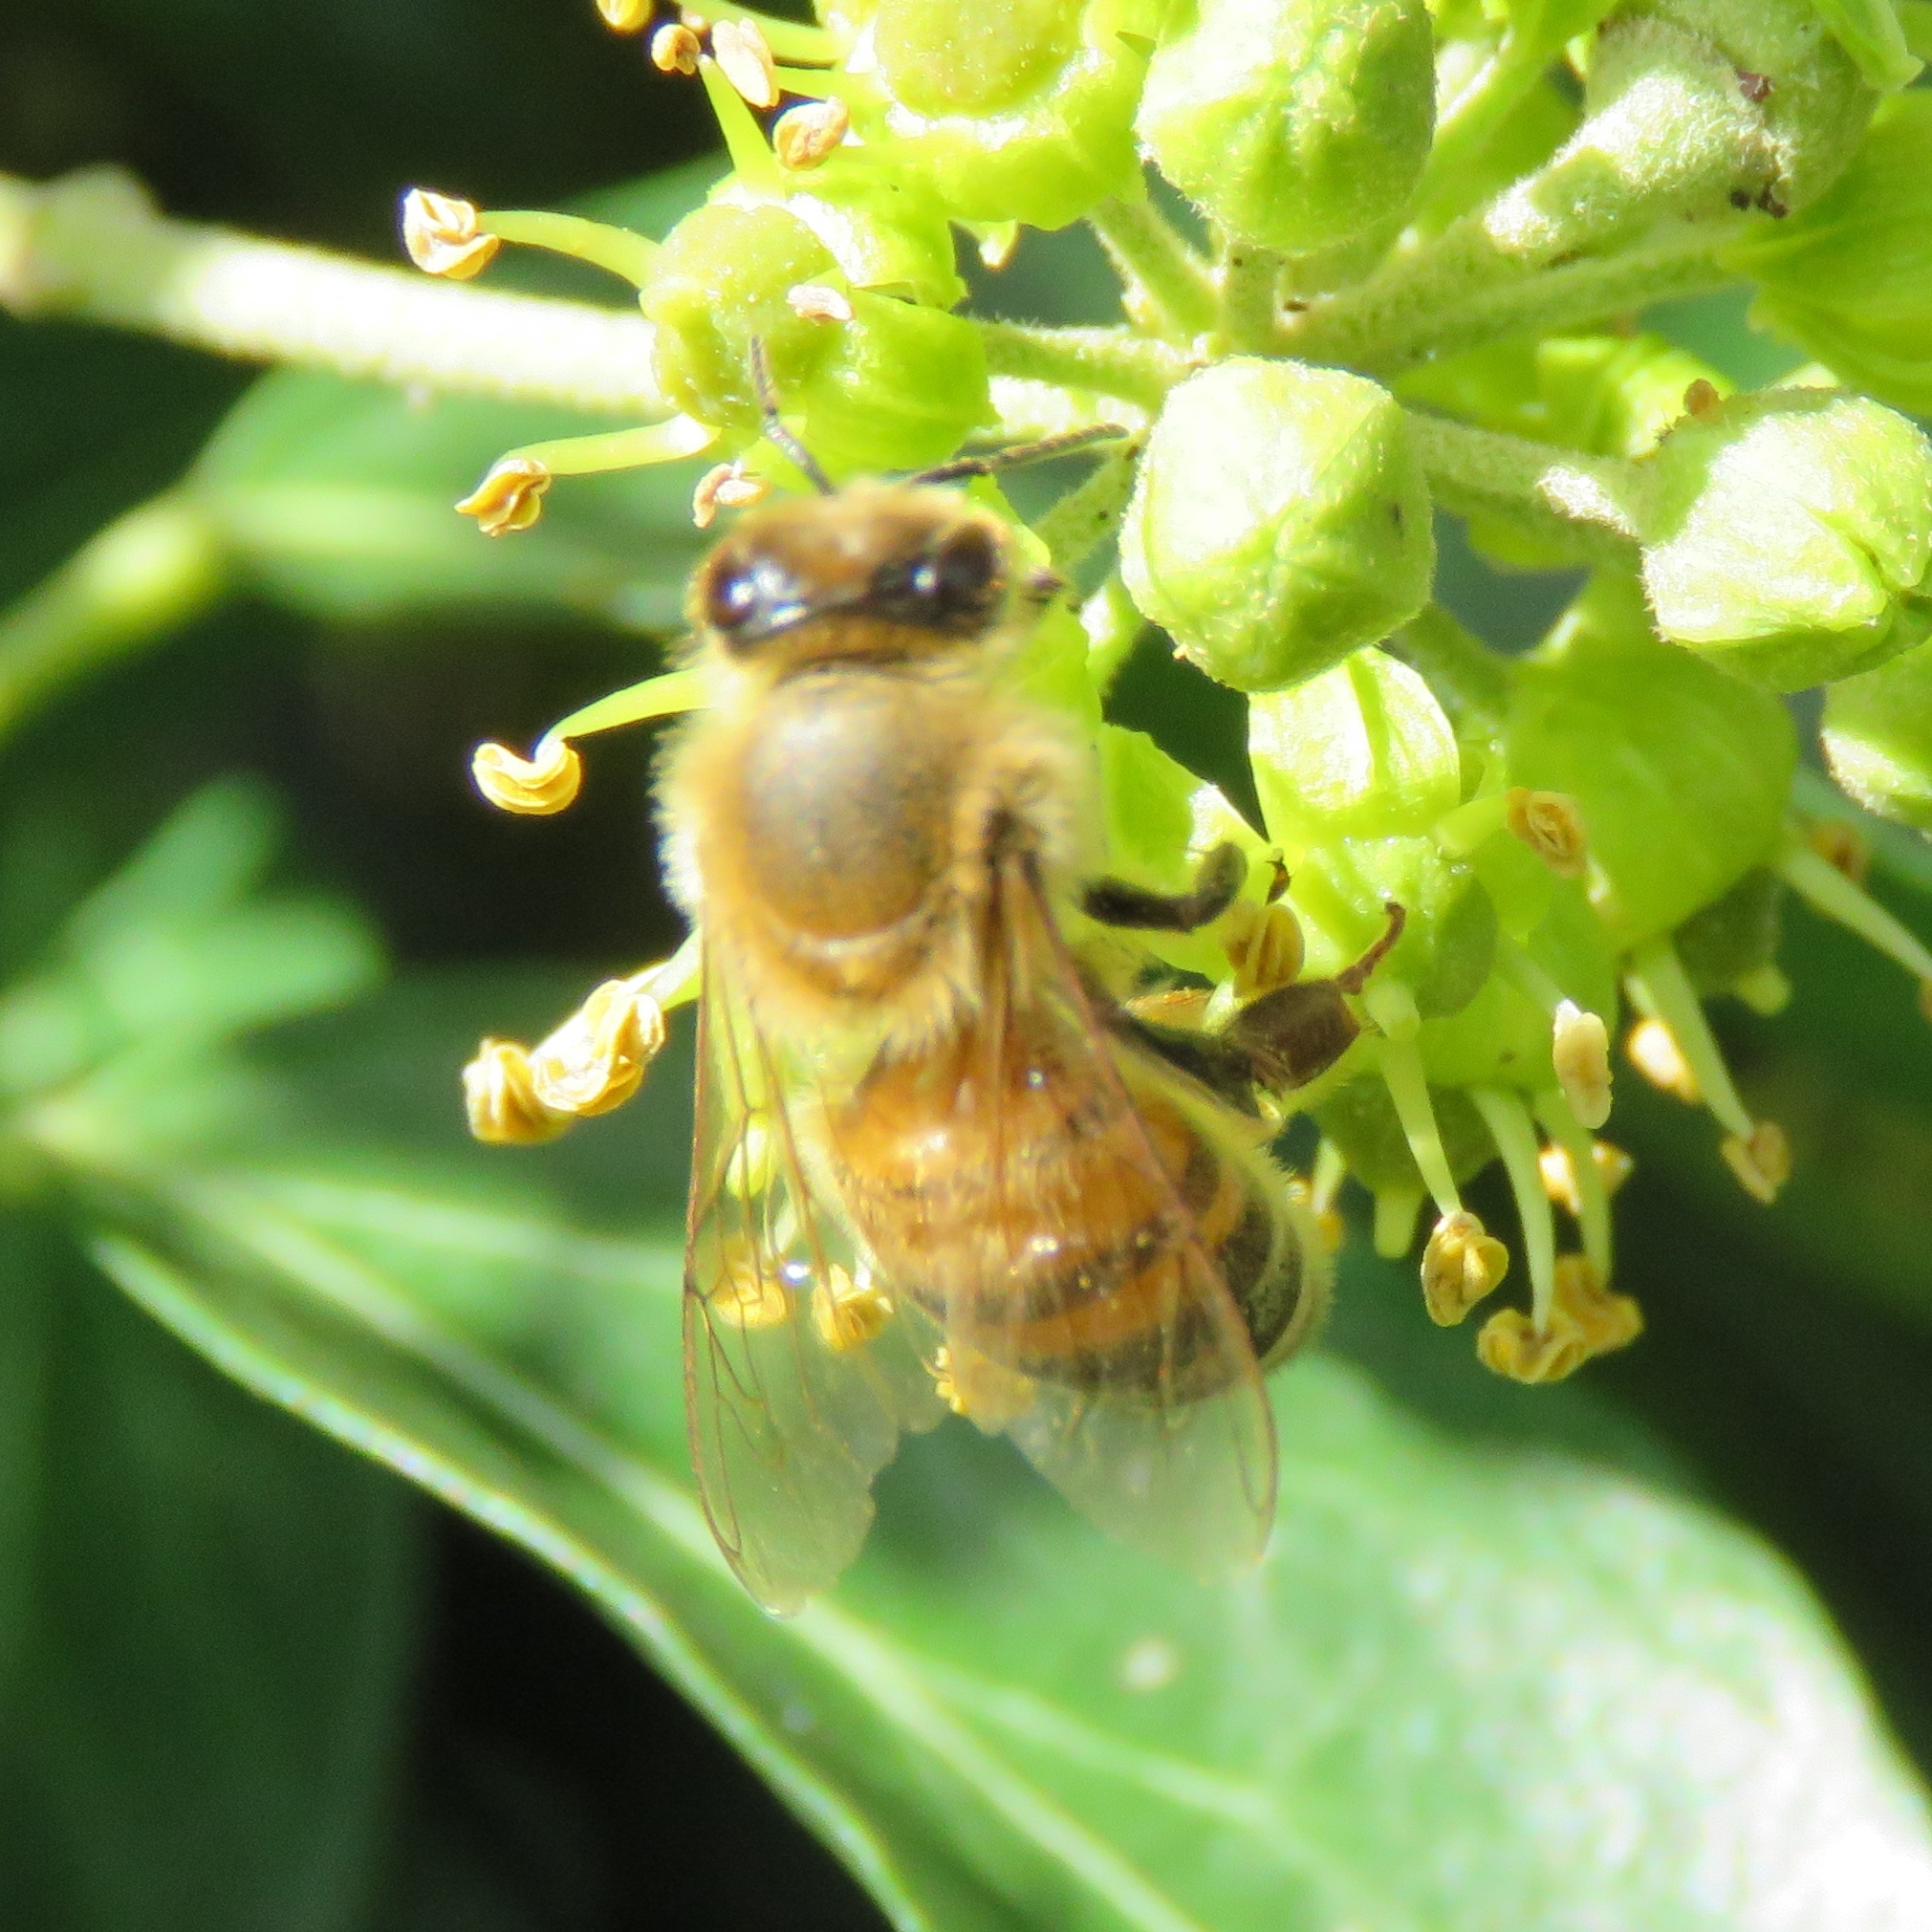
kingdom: Animalia
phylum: Arthropoda
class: Insecta
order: Hymenoptera
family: Apidae
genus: Apis
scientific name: Apis mellifera
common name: Honey bee
